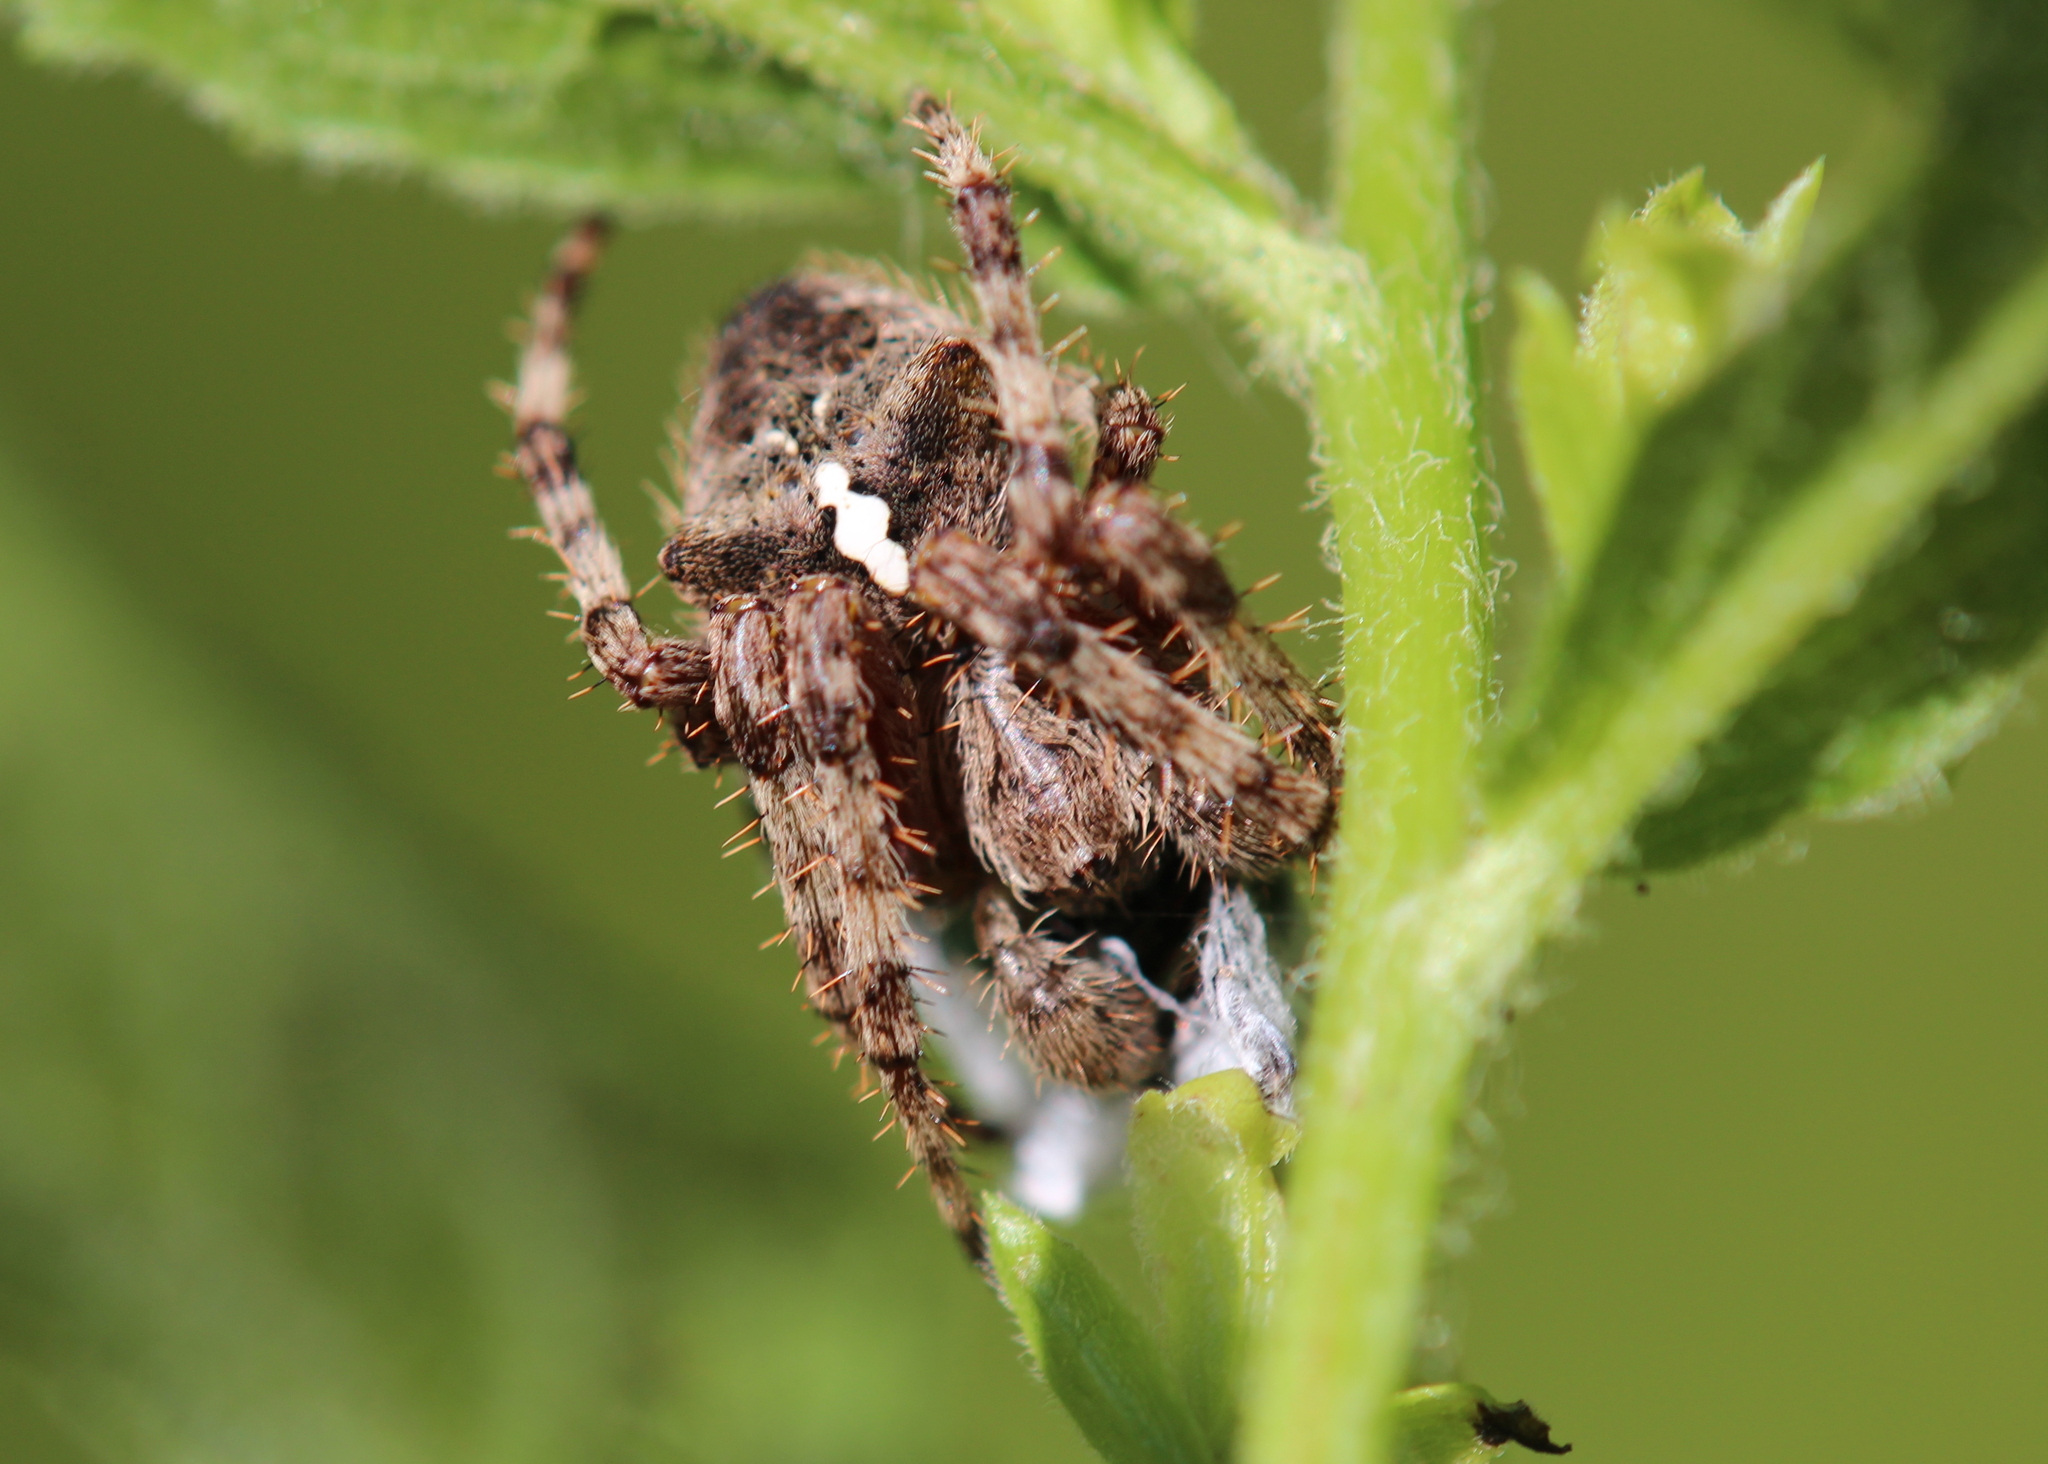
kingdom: Animalia
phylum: Arthropoda
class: Arachnida
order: Araneae
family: Araneidae
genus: Araneus
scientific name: Araneus saevus
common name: Fierce orbweaver
